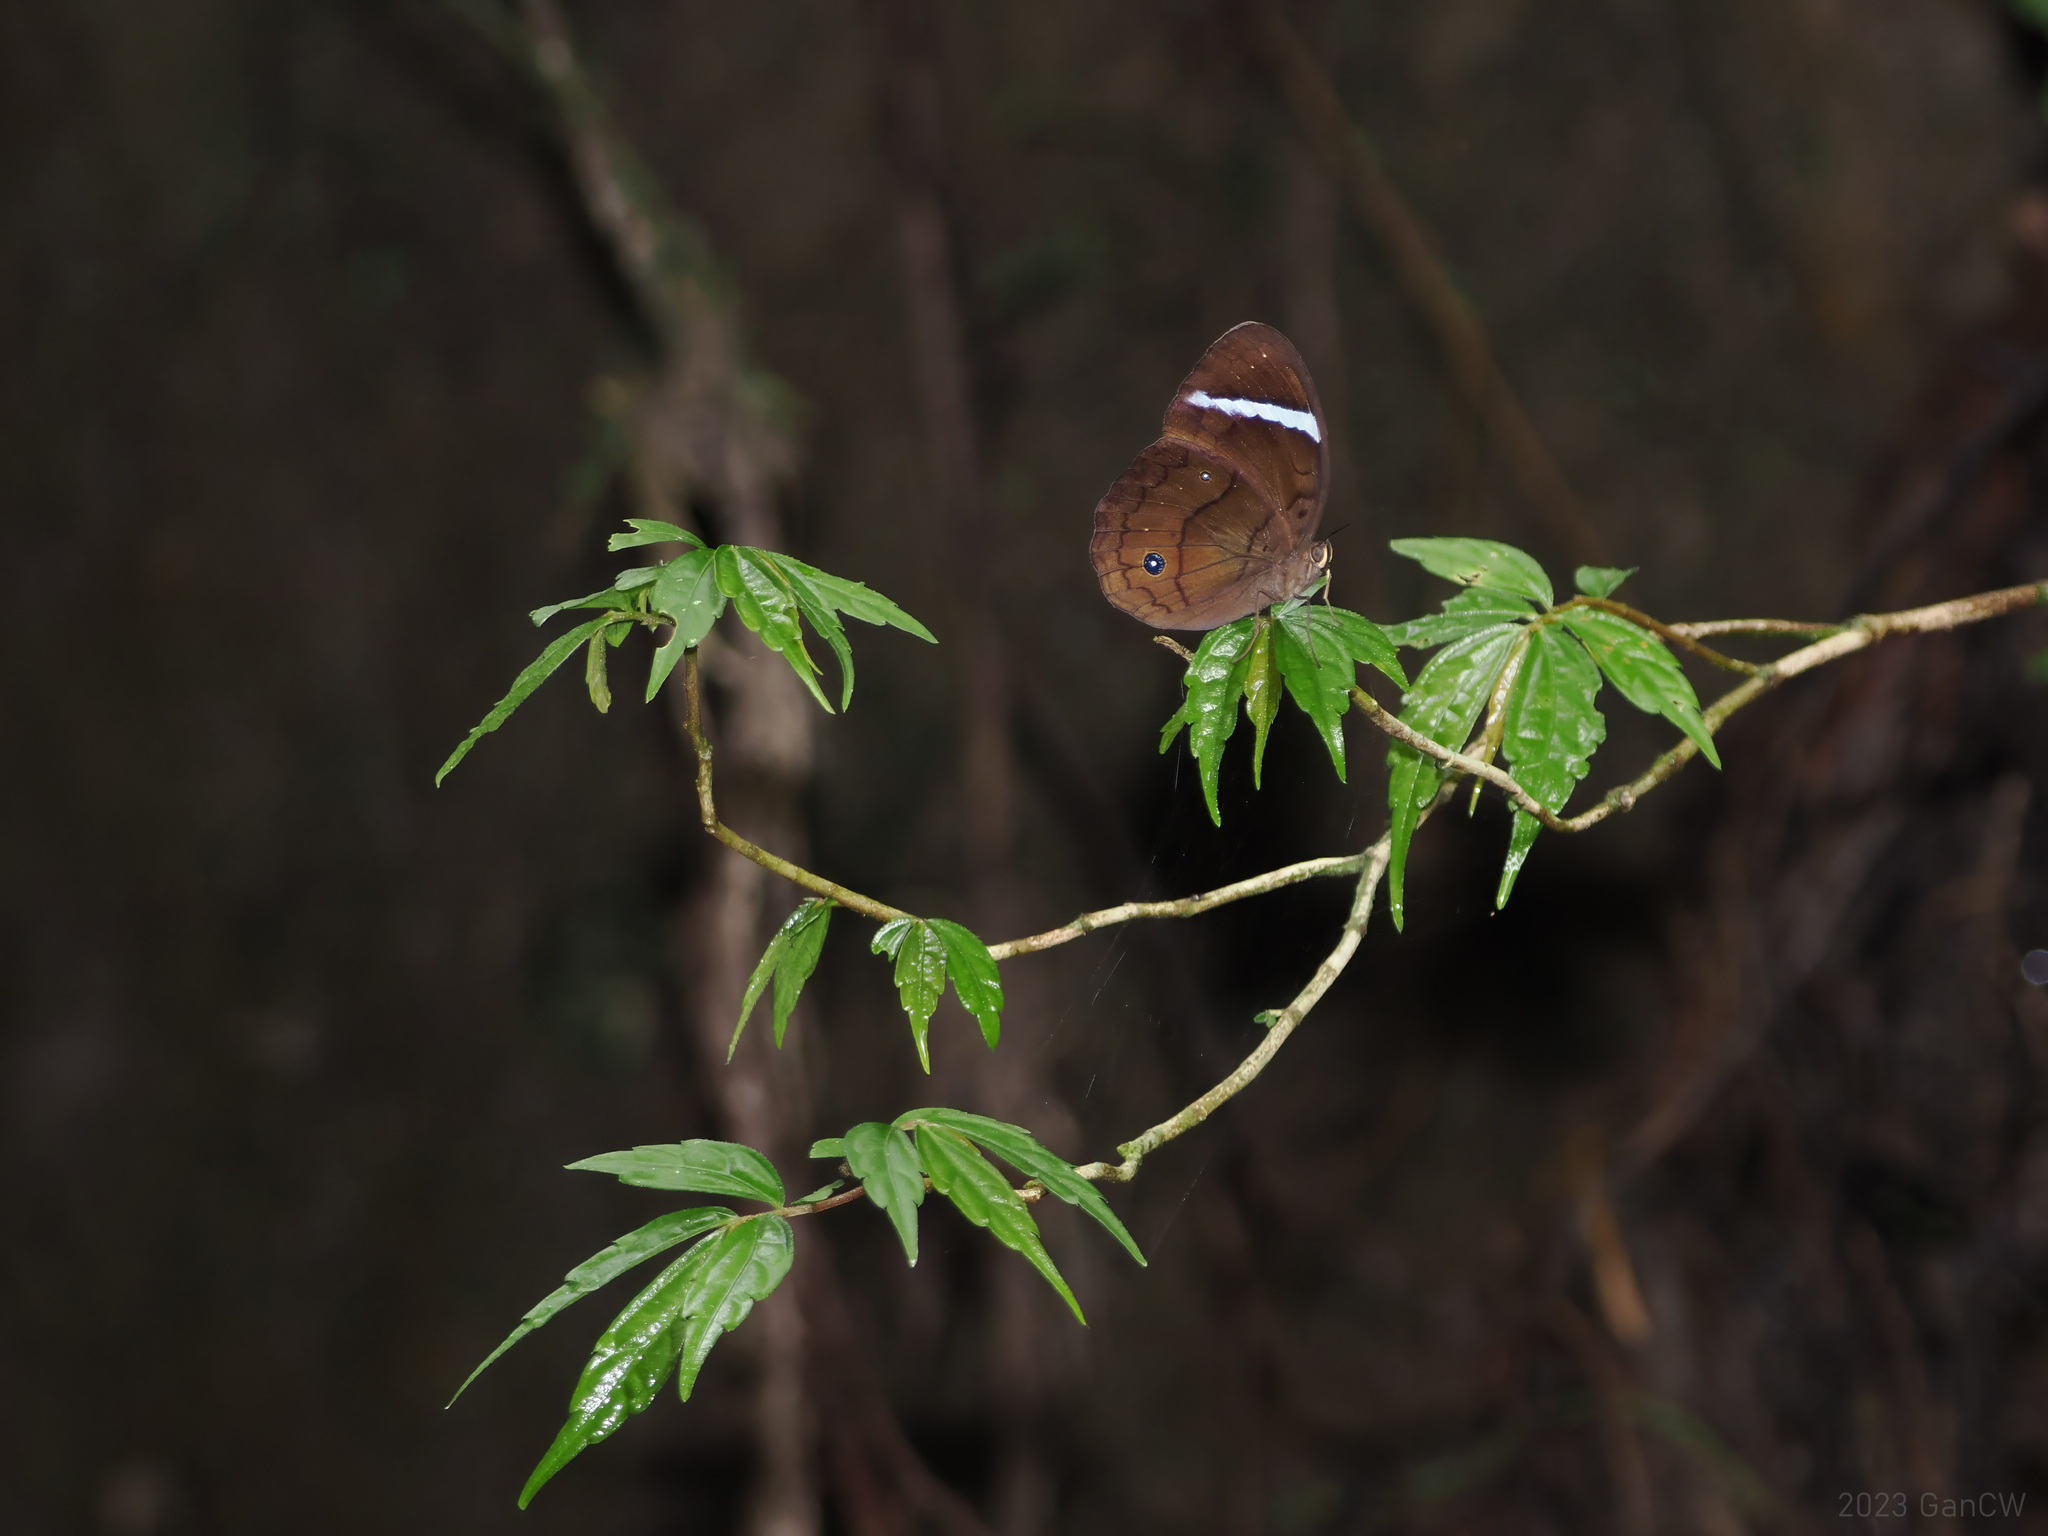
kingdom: Animalia
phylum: Arthropoda
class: Insecta
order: Lepidoptera
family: Nymphalidae
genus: Faunis
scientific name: Faunis menado
